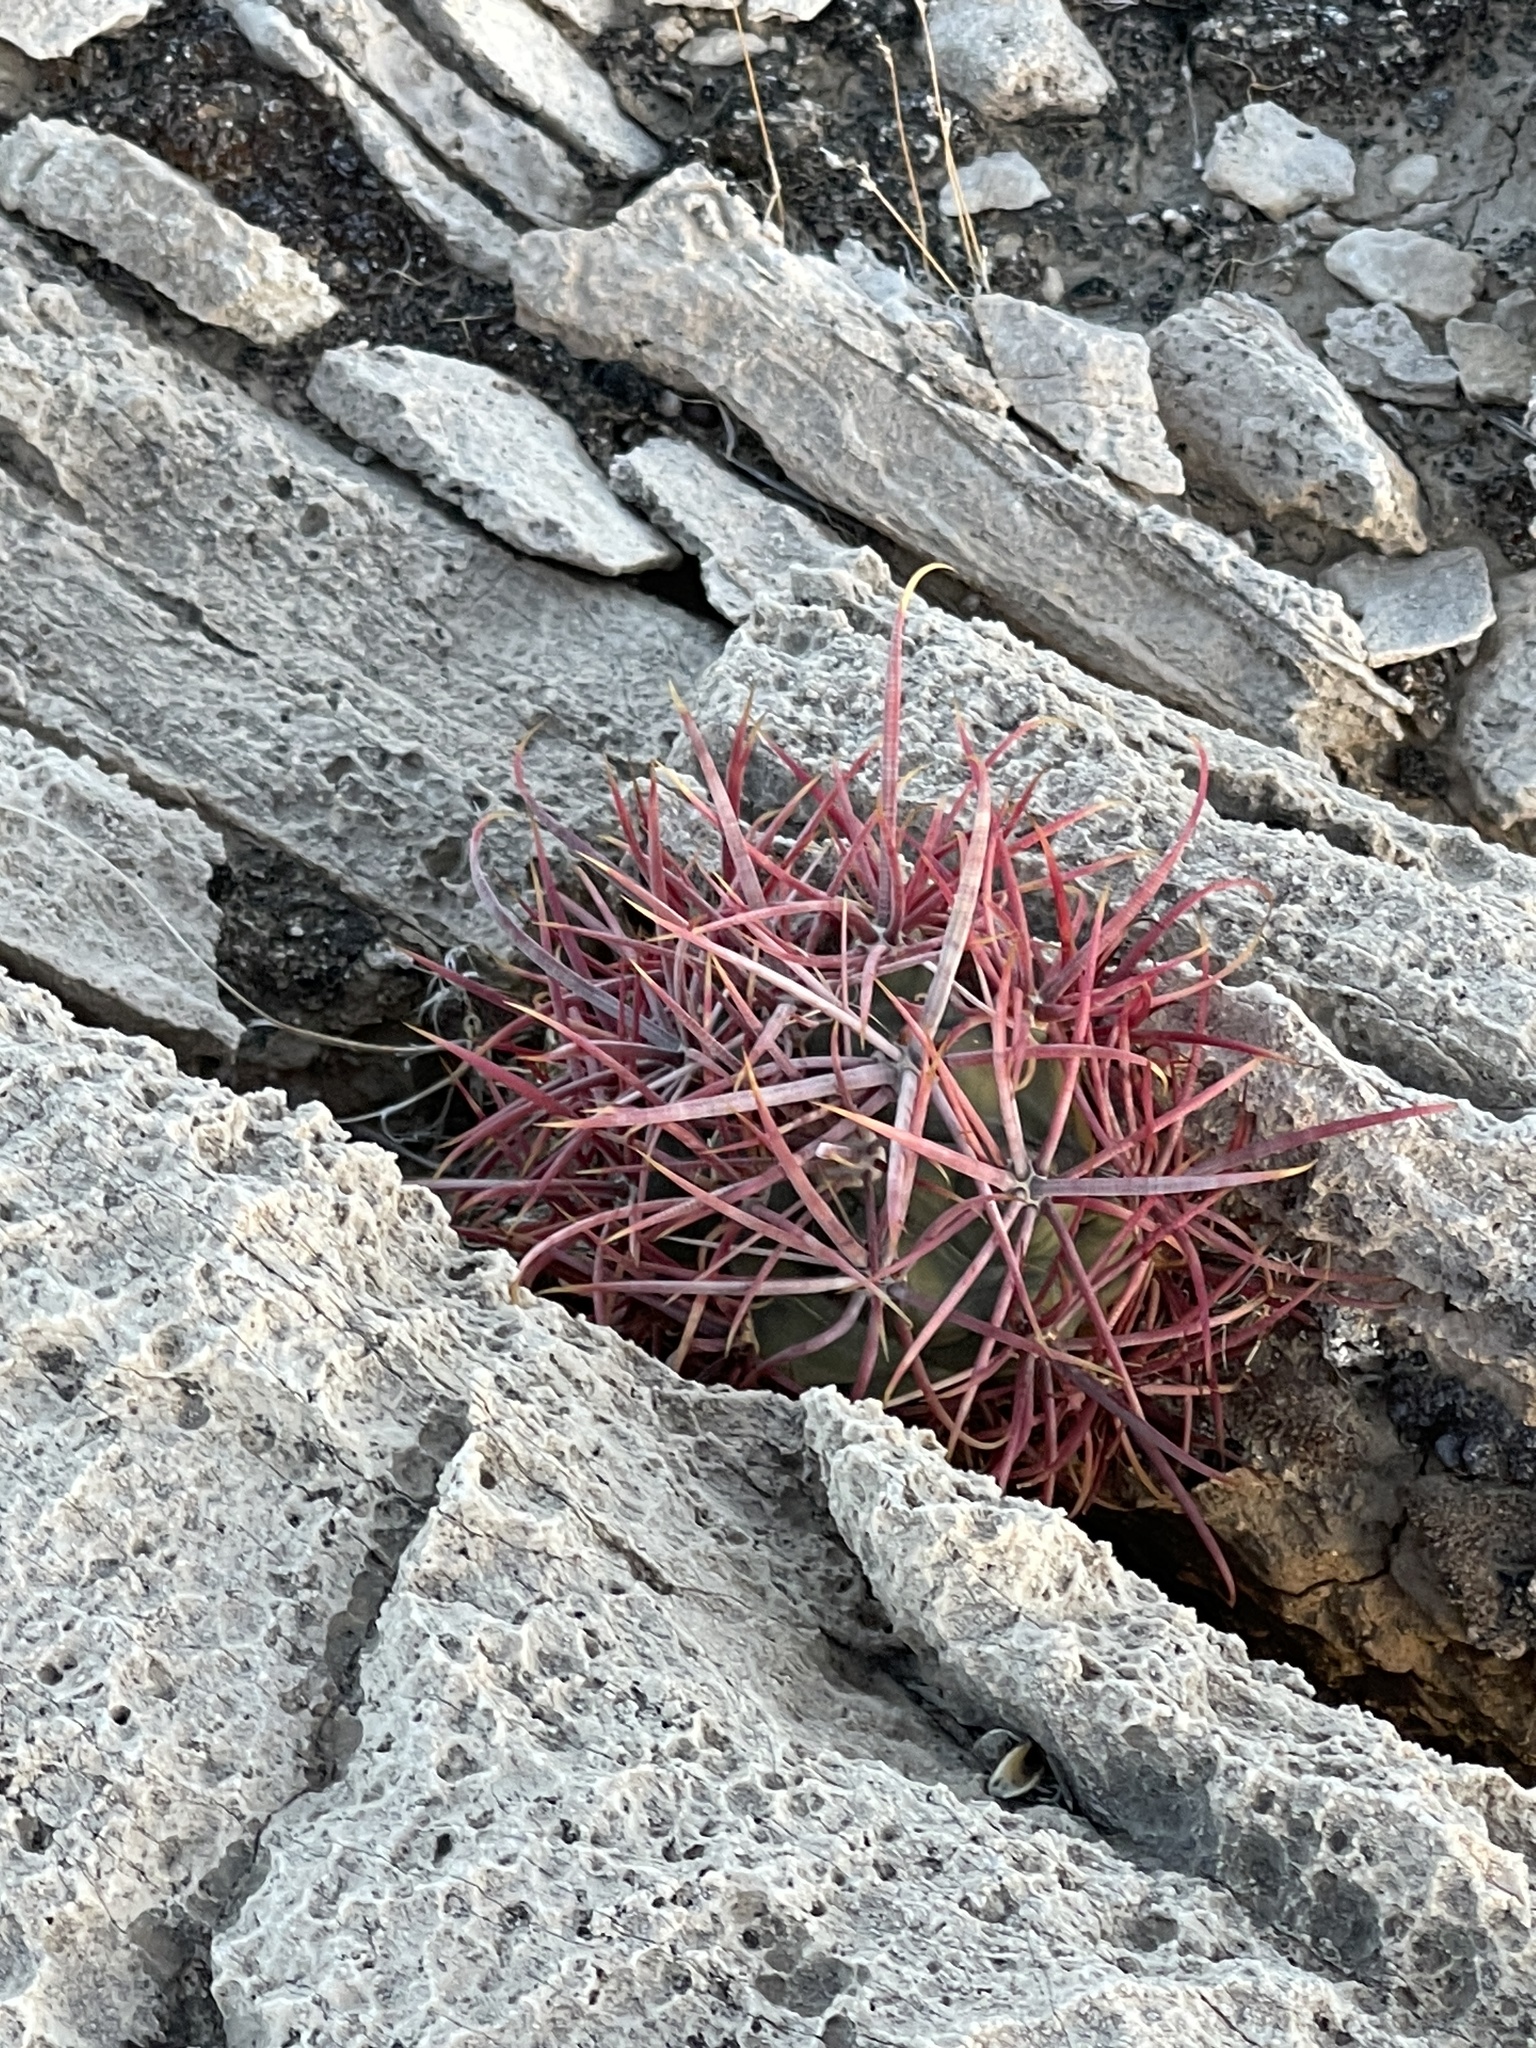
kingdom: Plantae
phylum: Tracheophyta
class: Magnoliopsida
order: Caryophyllales
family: Cactaceae
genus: Ferocactus
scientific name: Ferocactus cylindraceus
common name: California barrel cactus
